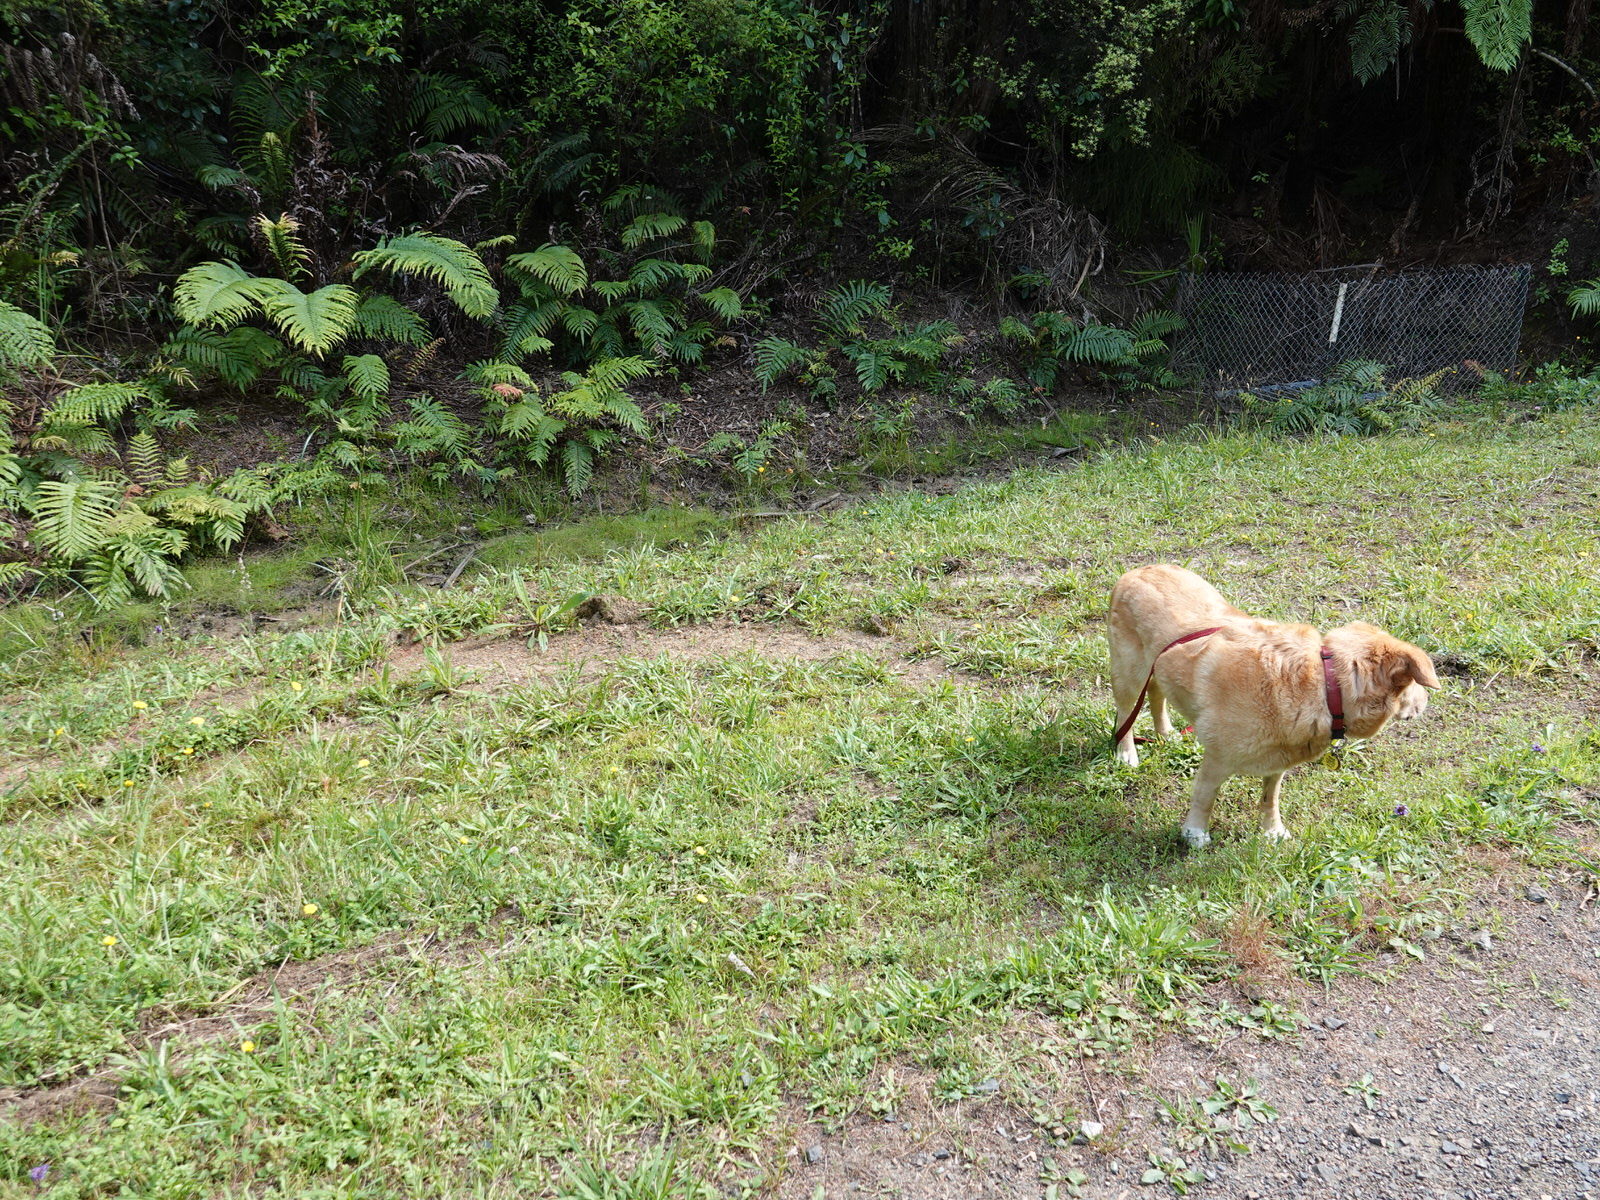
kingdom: Plantae
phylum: Tracheophyta
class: Magnoliopsida
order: Myrtales
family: Lythraceae
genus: Lythrum
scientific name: Lythrum hyssopifolia
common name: Grass-poly
